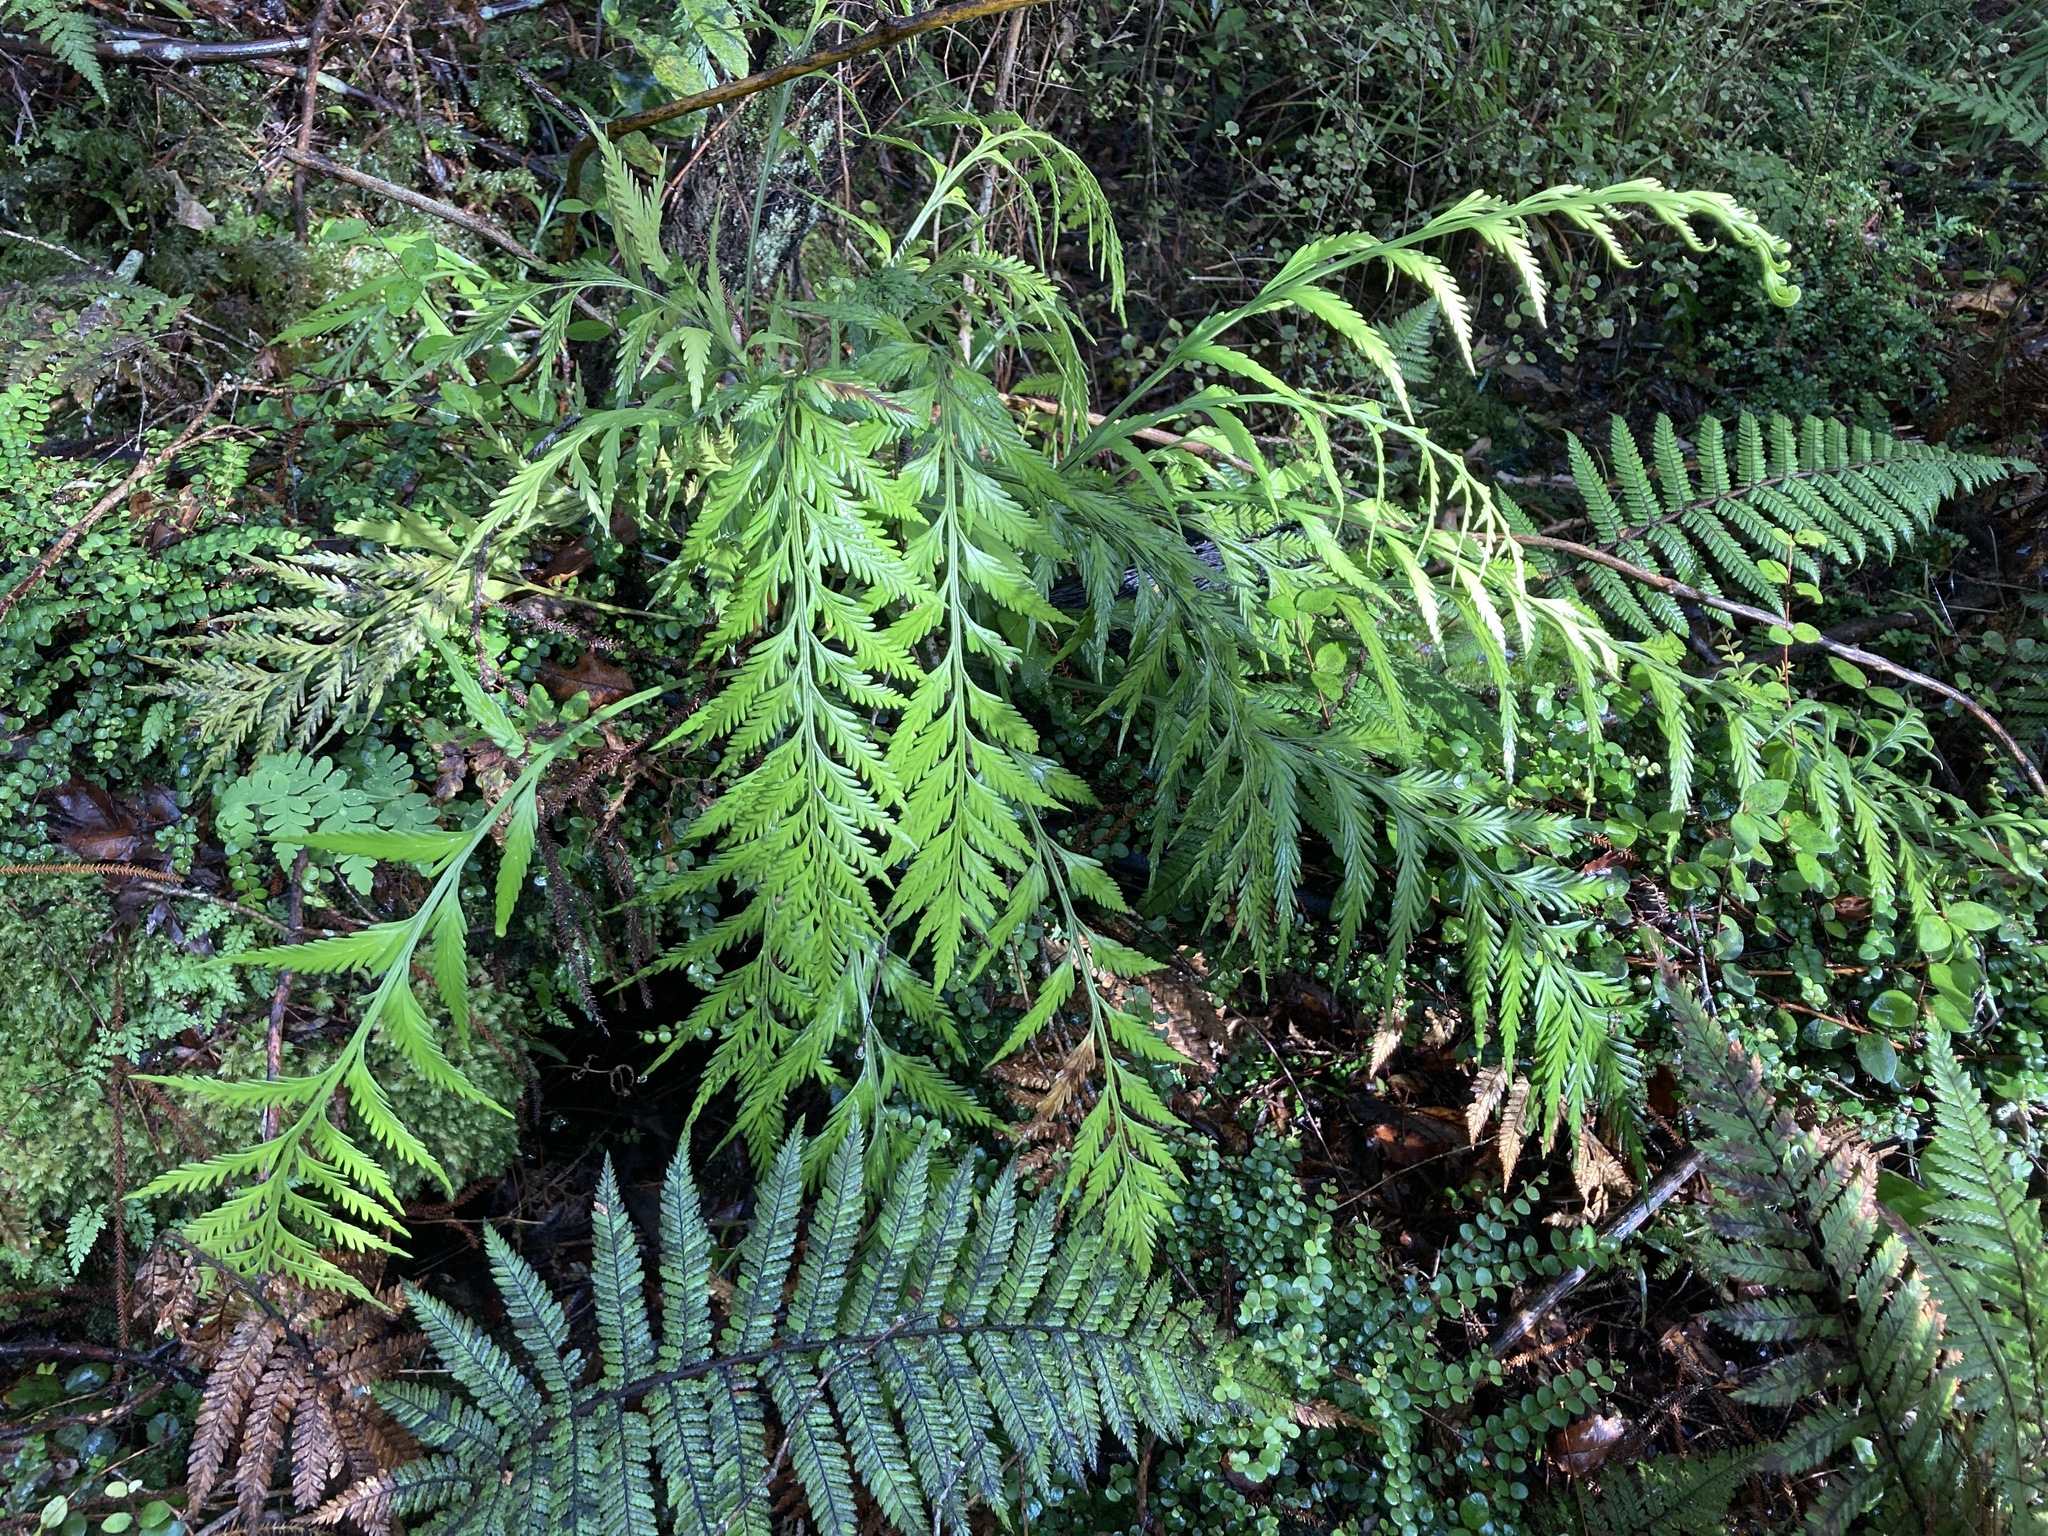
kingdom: Plantae
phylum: Tracheophyta
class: Polypodiopsida
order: Polypodiales
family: Aspleniaceae
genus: Asplenium
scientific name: Asplenium flaccidum
